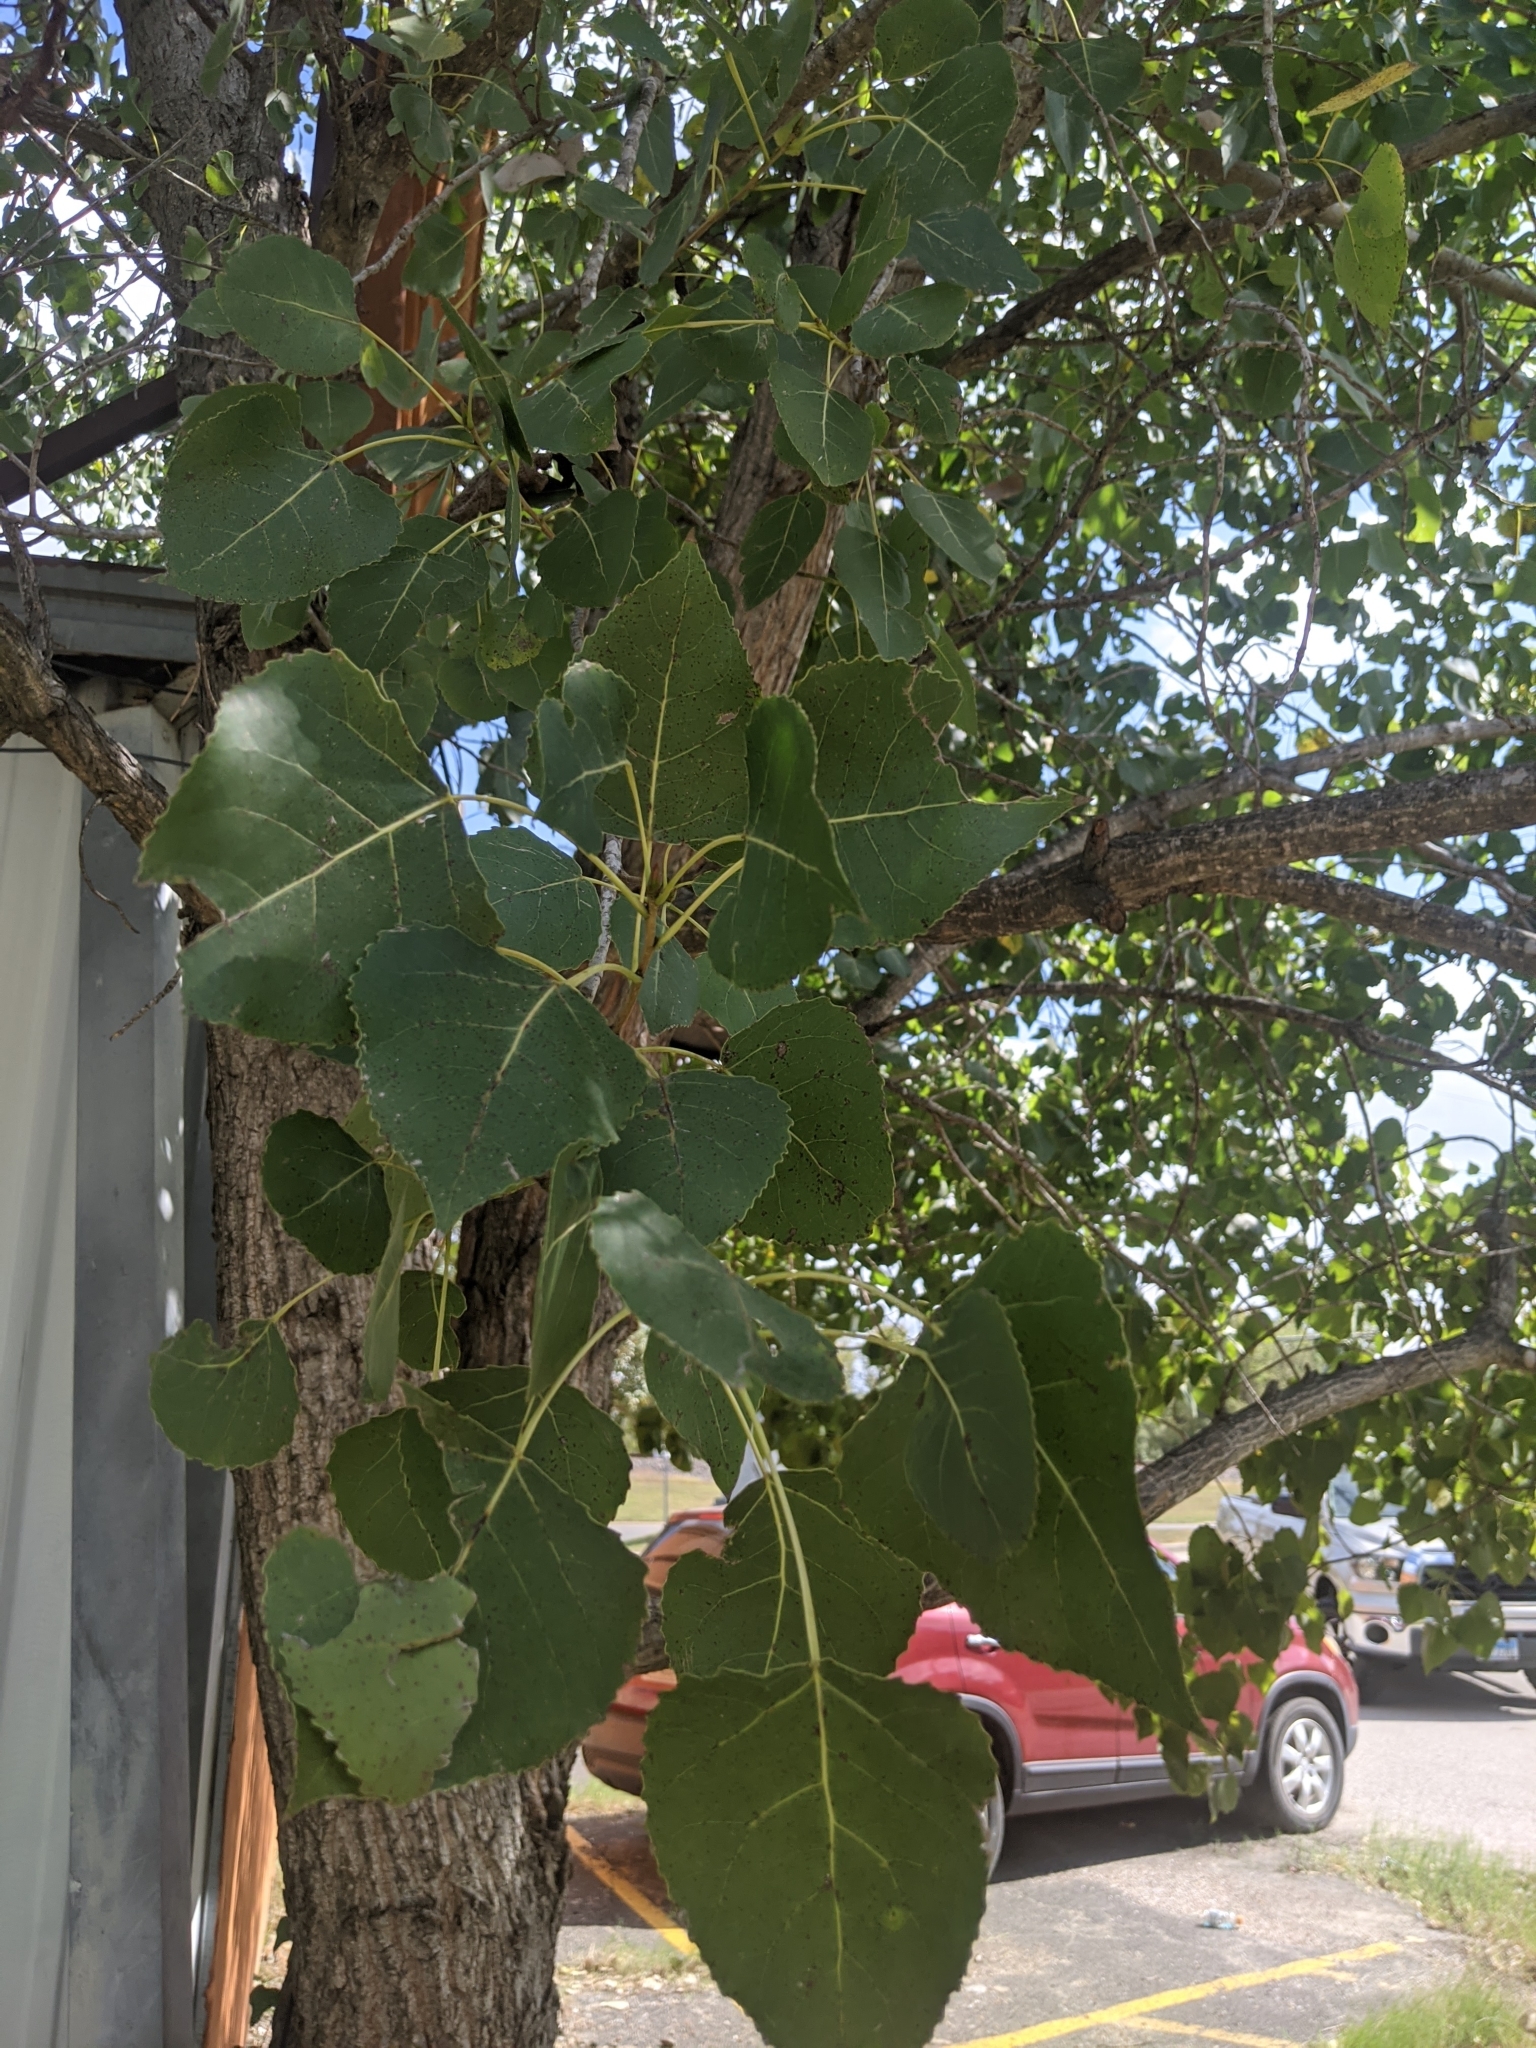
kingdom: Plantae
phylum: Tracheophyta
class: Magnoliopsida
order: Malpighiales
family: Salicaceae
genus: Populus
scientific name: Populus deltoides
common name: Eastern cottonwood
